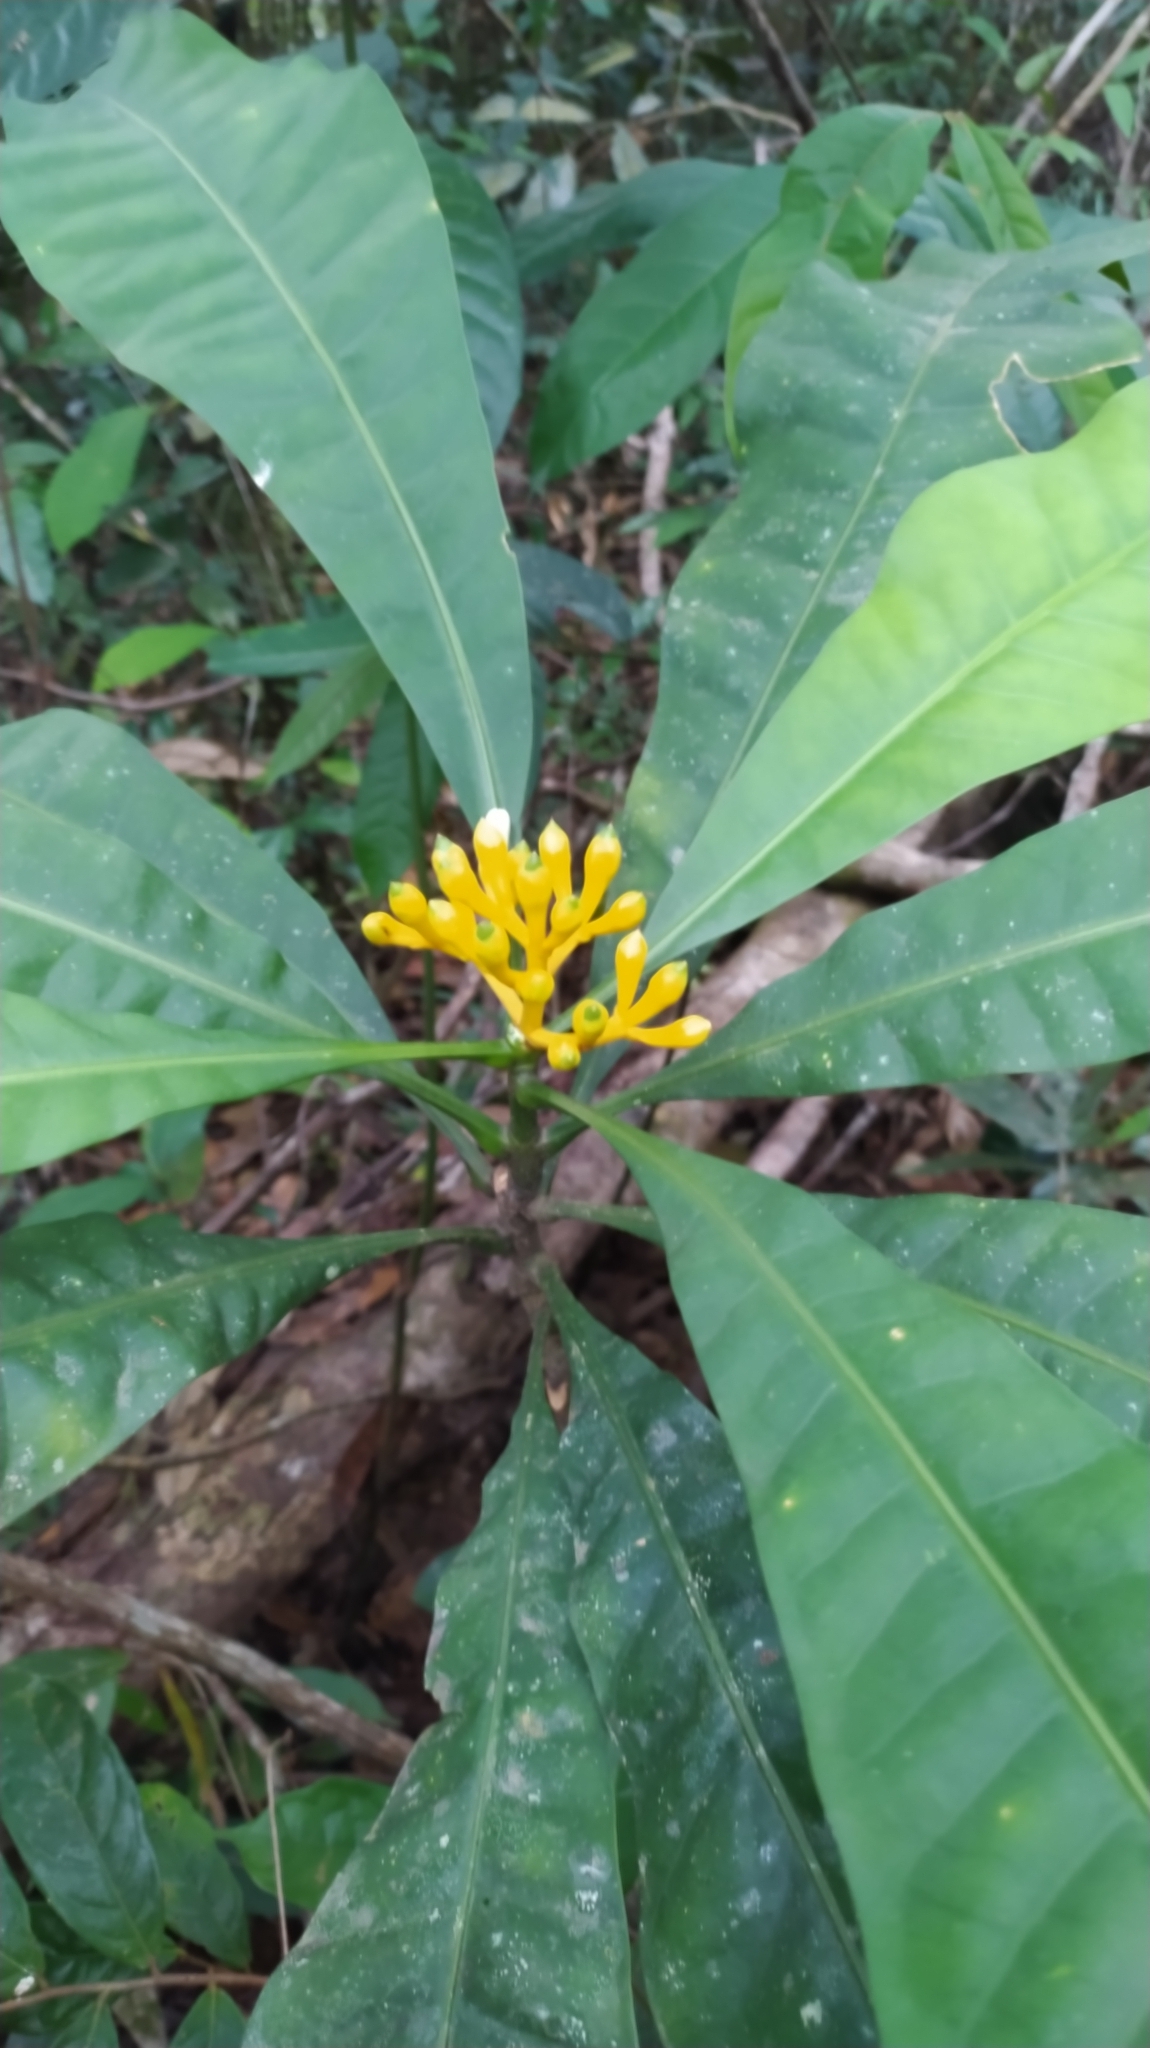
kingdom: Plantae
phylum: Tracheophyta
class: Magnoliopsida
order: Gentianales
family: Gentianaceae
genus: Potalia
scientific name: Potalia amara
